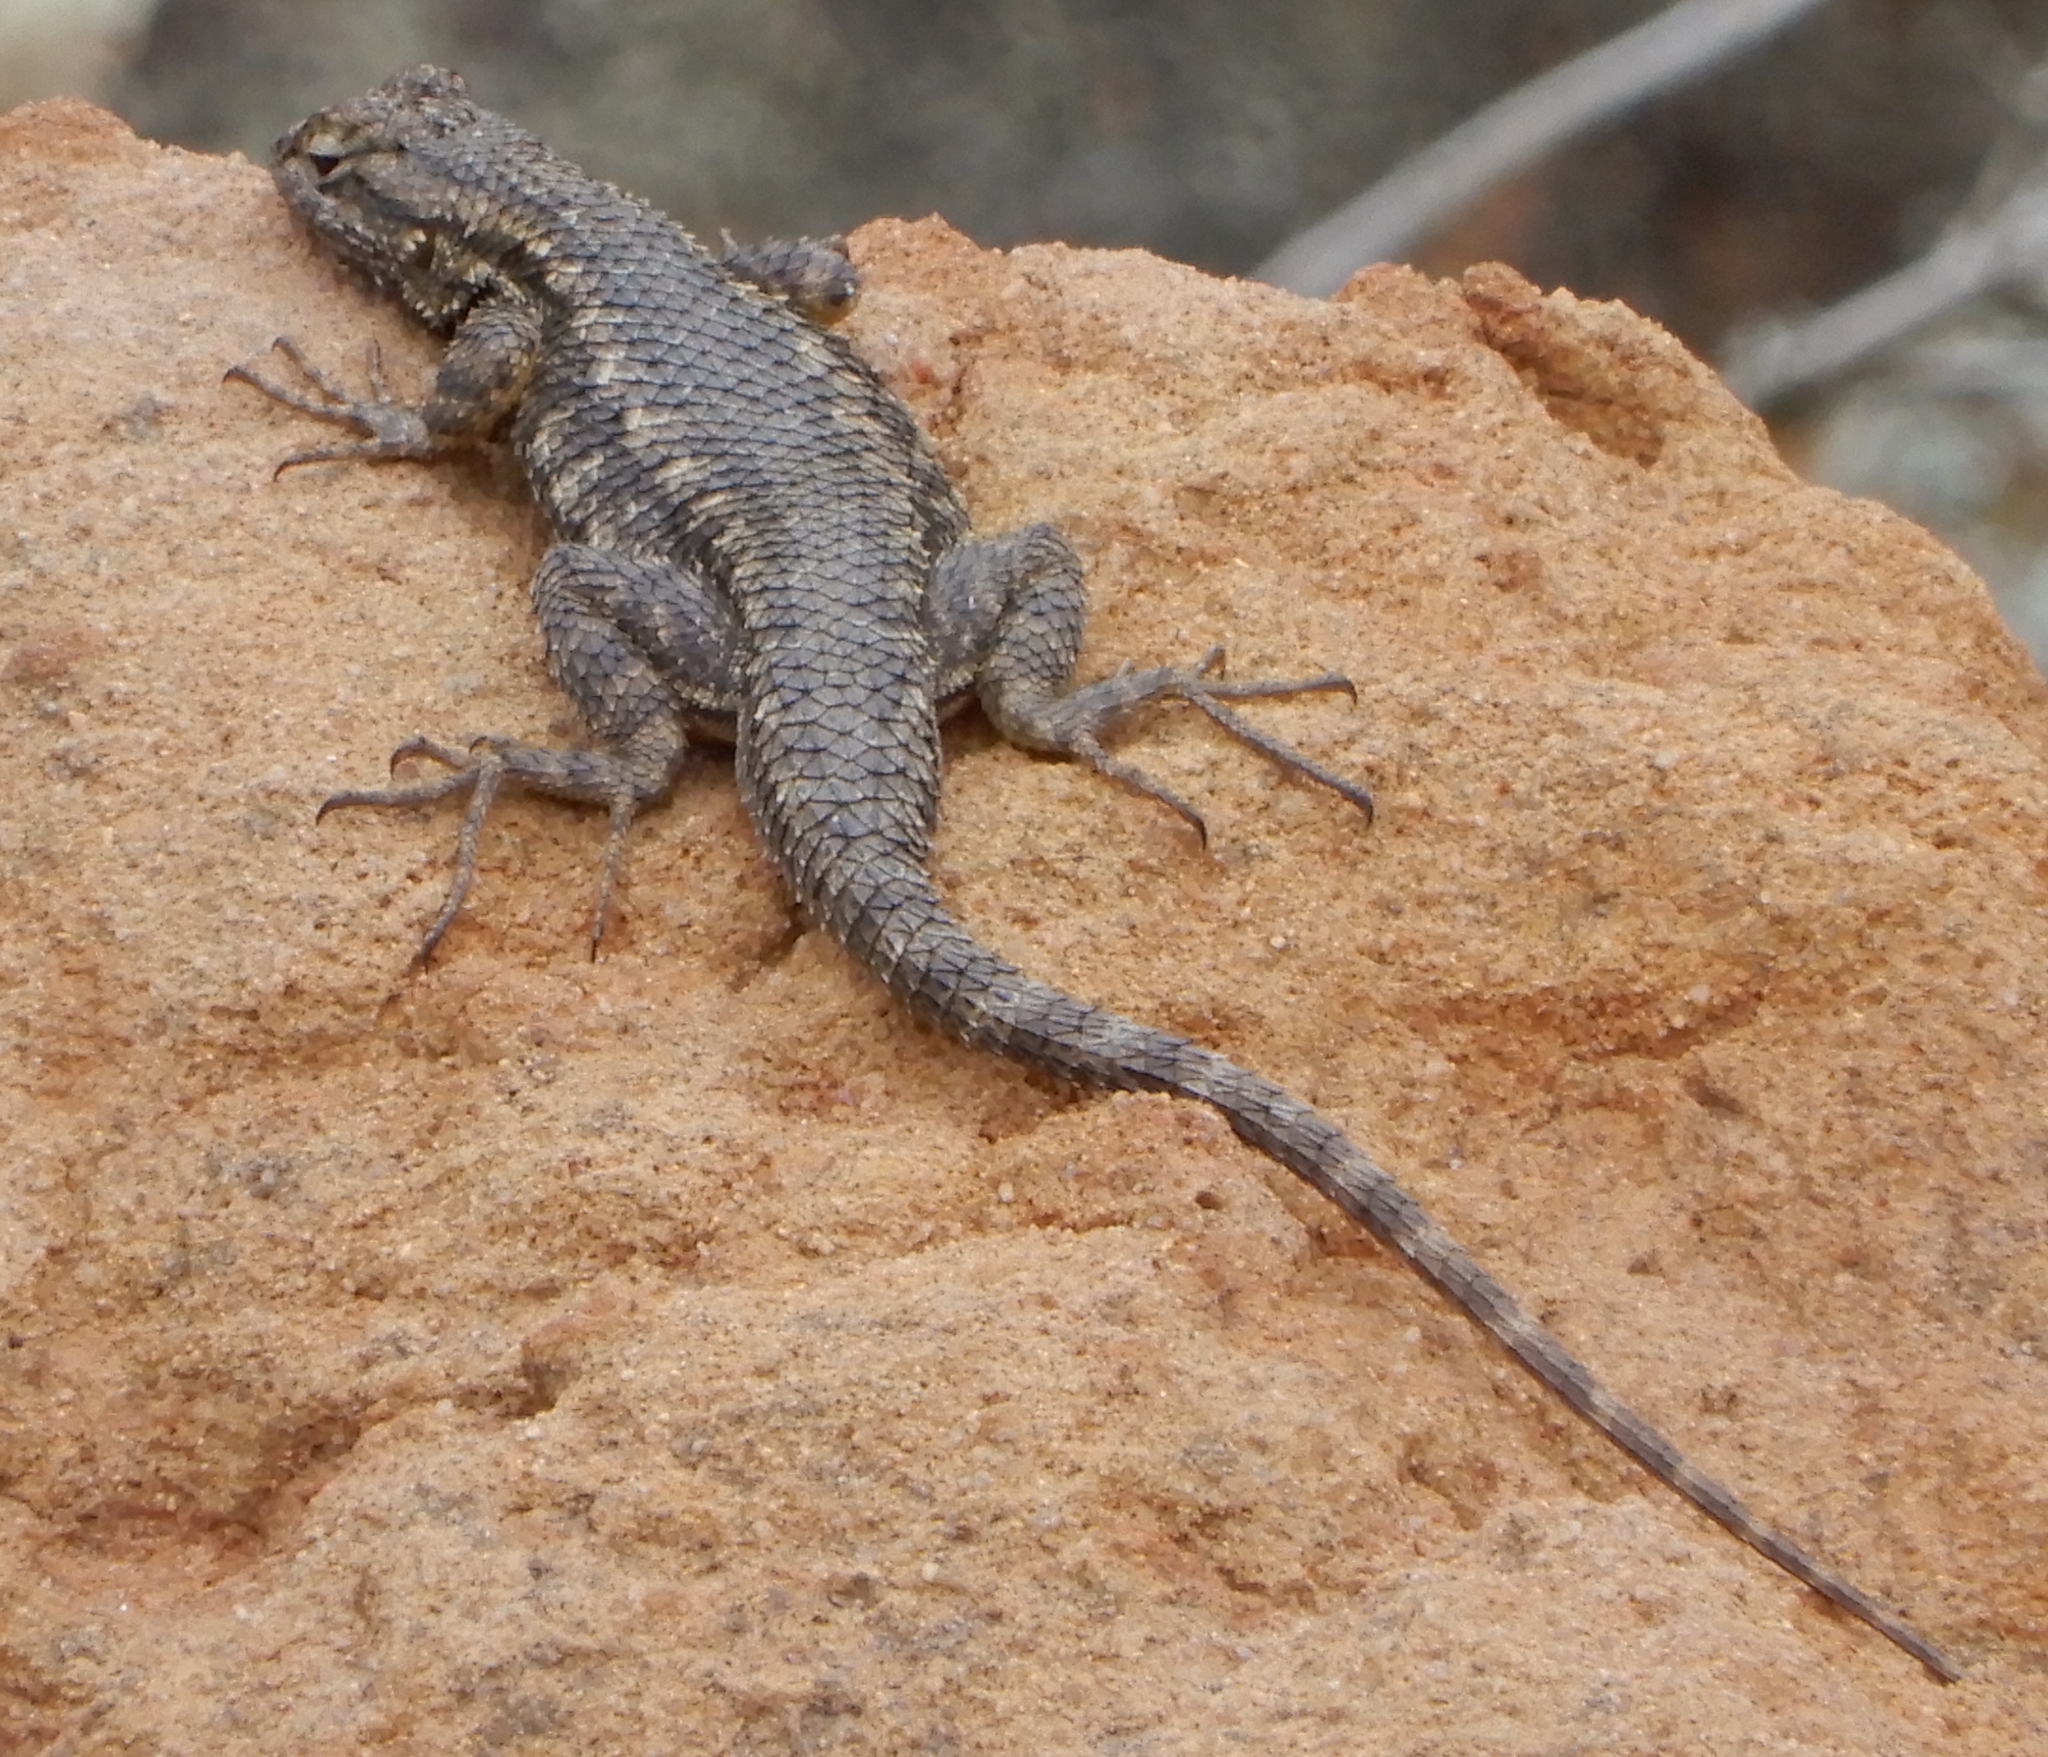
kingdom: Animalia
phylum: Chordata
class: Squamata
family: Phrynosomatidae
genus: Sceloporus
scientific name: Sceloporus occidentalis
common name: Western fence lizard
